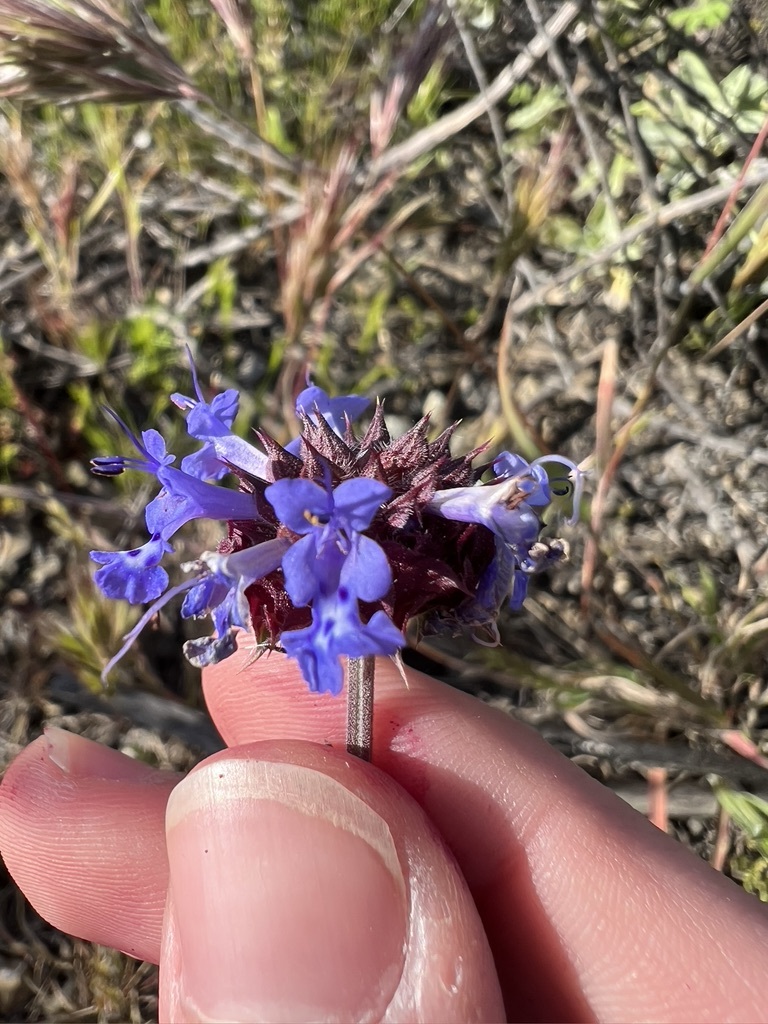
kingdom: Plantae
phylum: Tracheophyta
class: Magnoliopsida
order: Lamiales
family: Lamiaceae
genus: Salvia
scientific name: Salvia columbariae
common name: Chia
